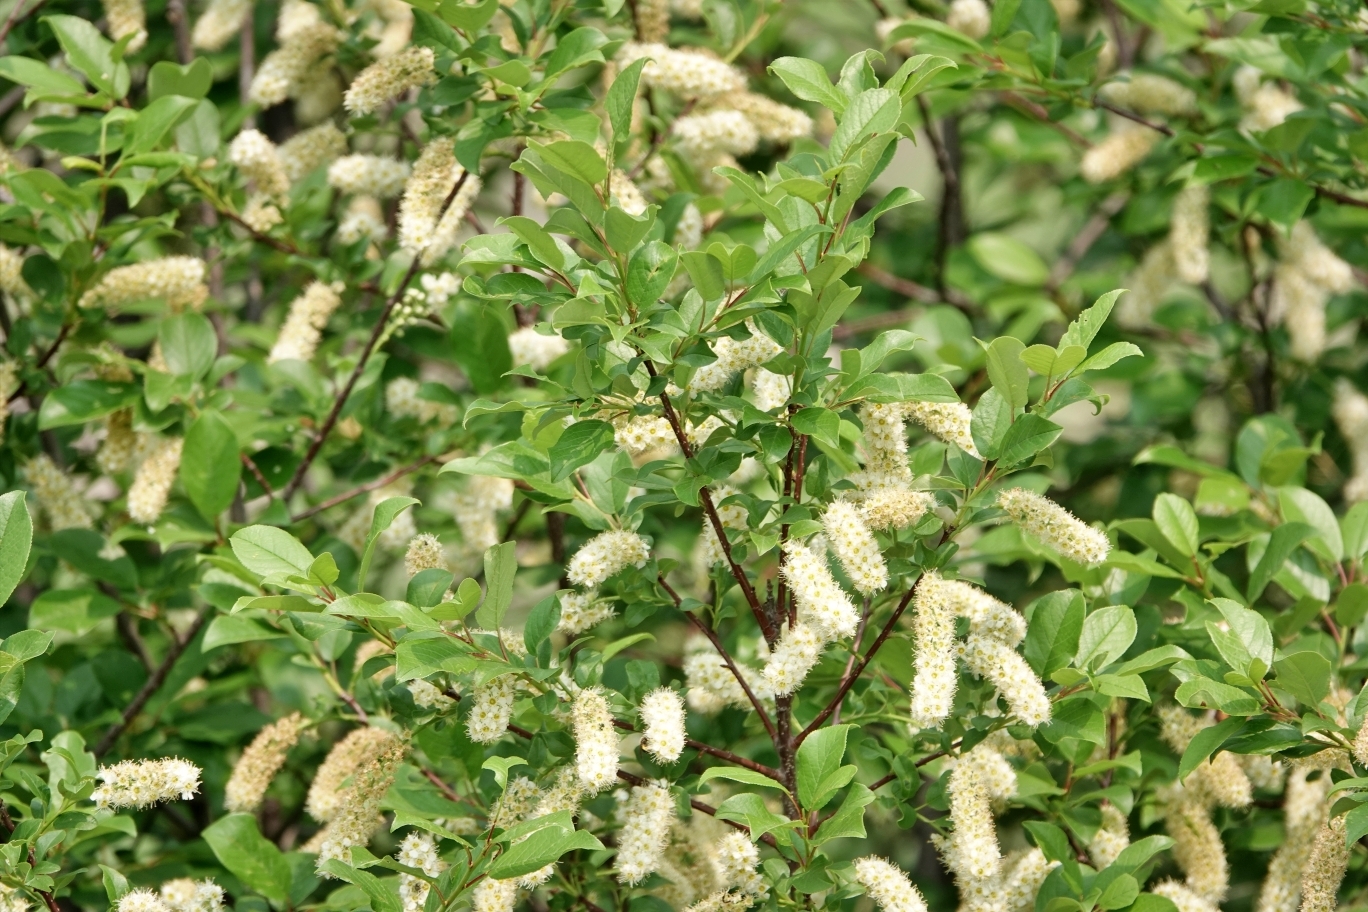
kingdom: Plantae
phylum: Tracheophyta
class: Magnoliopsida
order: Rosales
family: Rosaceae
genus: Prunus
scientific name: Prunus virginiana
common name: Chokecherry
